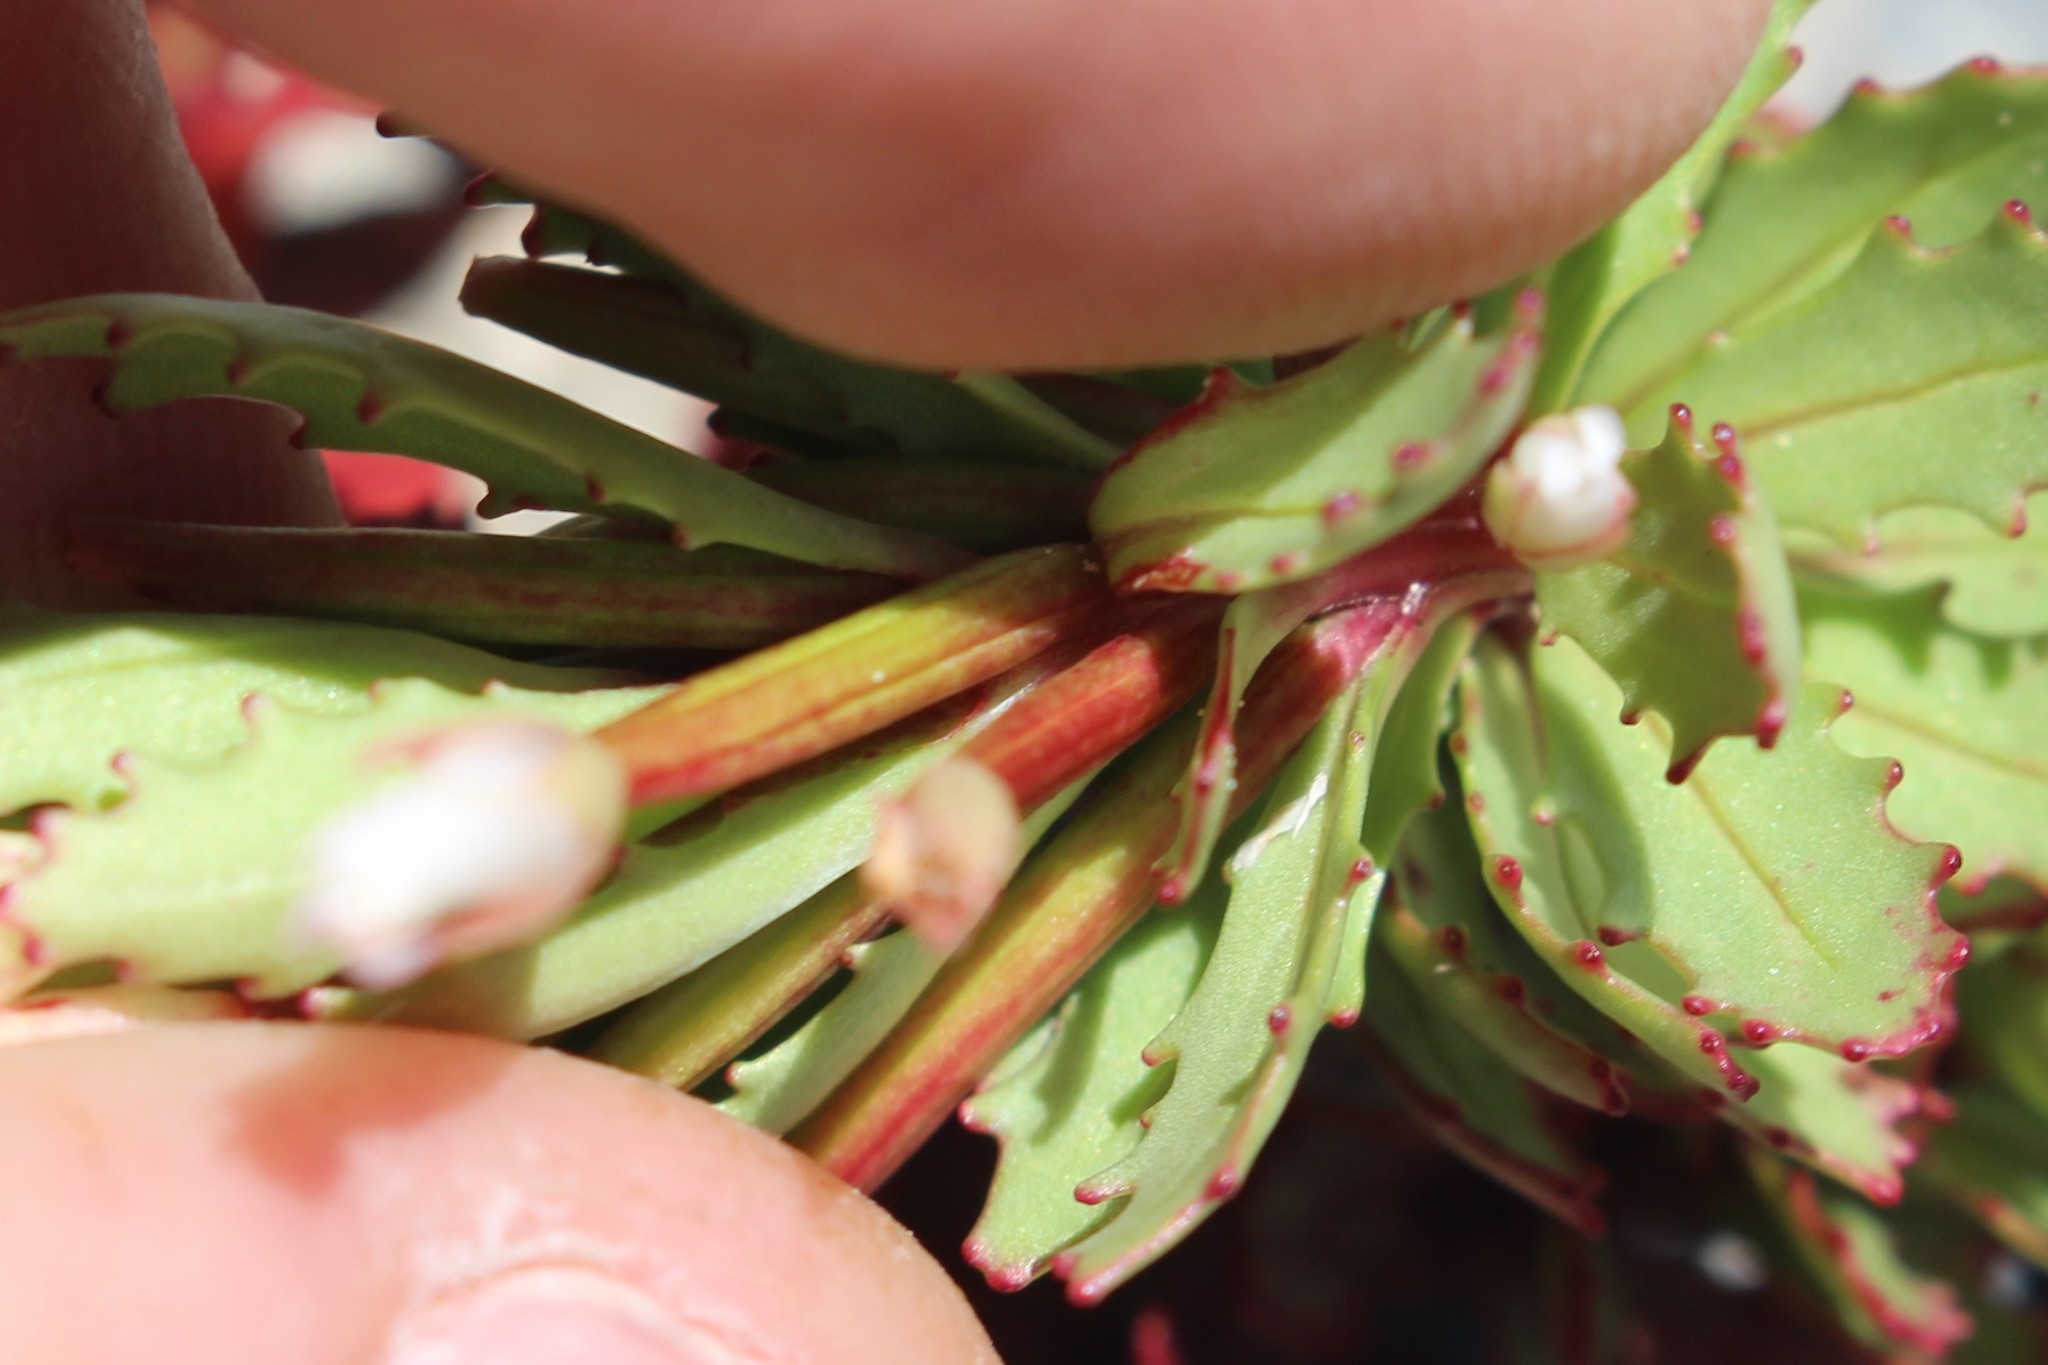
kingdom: Plantae
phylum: Tracheophyta
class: Magnoliopsida
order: Myrtales
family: Onagraceae
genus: Epilobium
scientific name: Epilobium pycnostachyum
